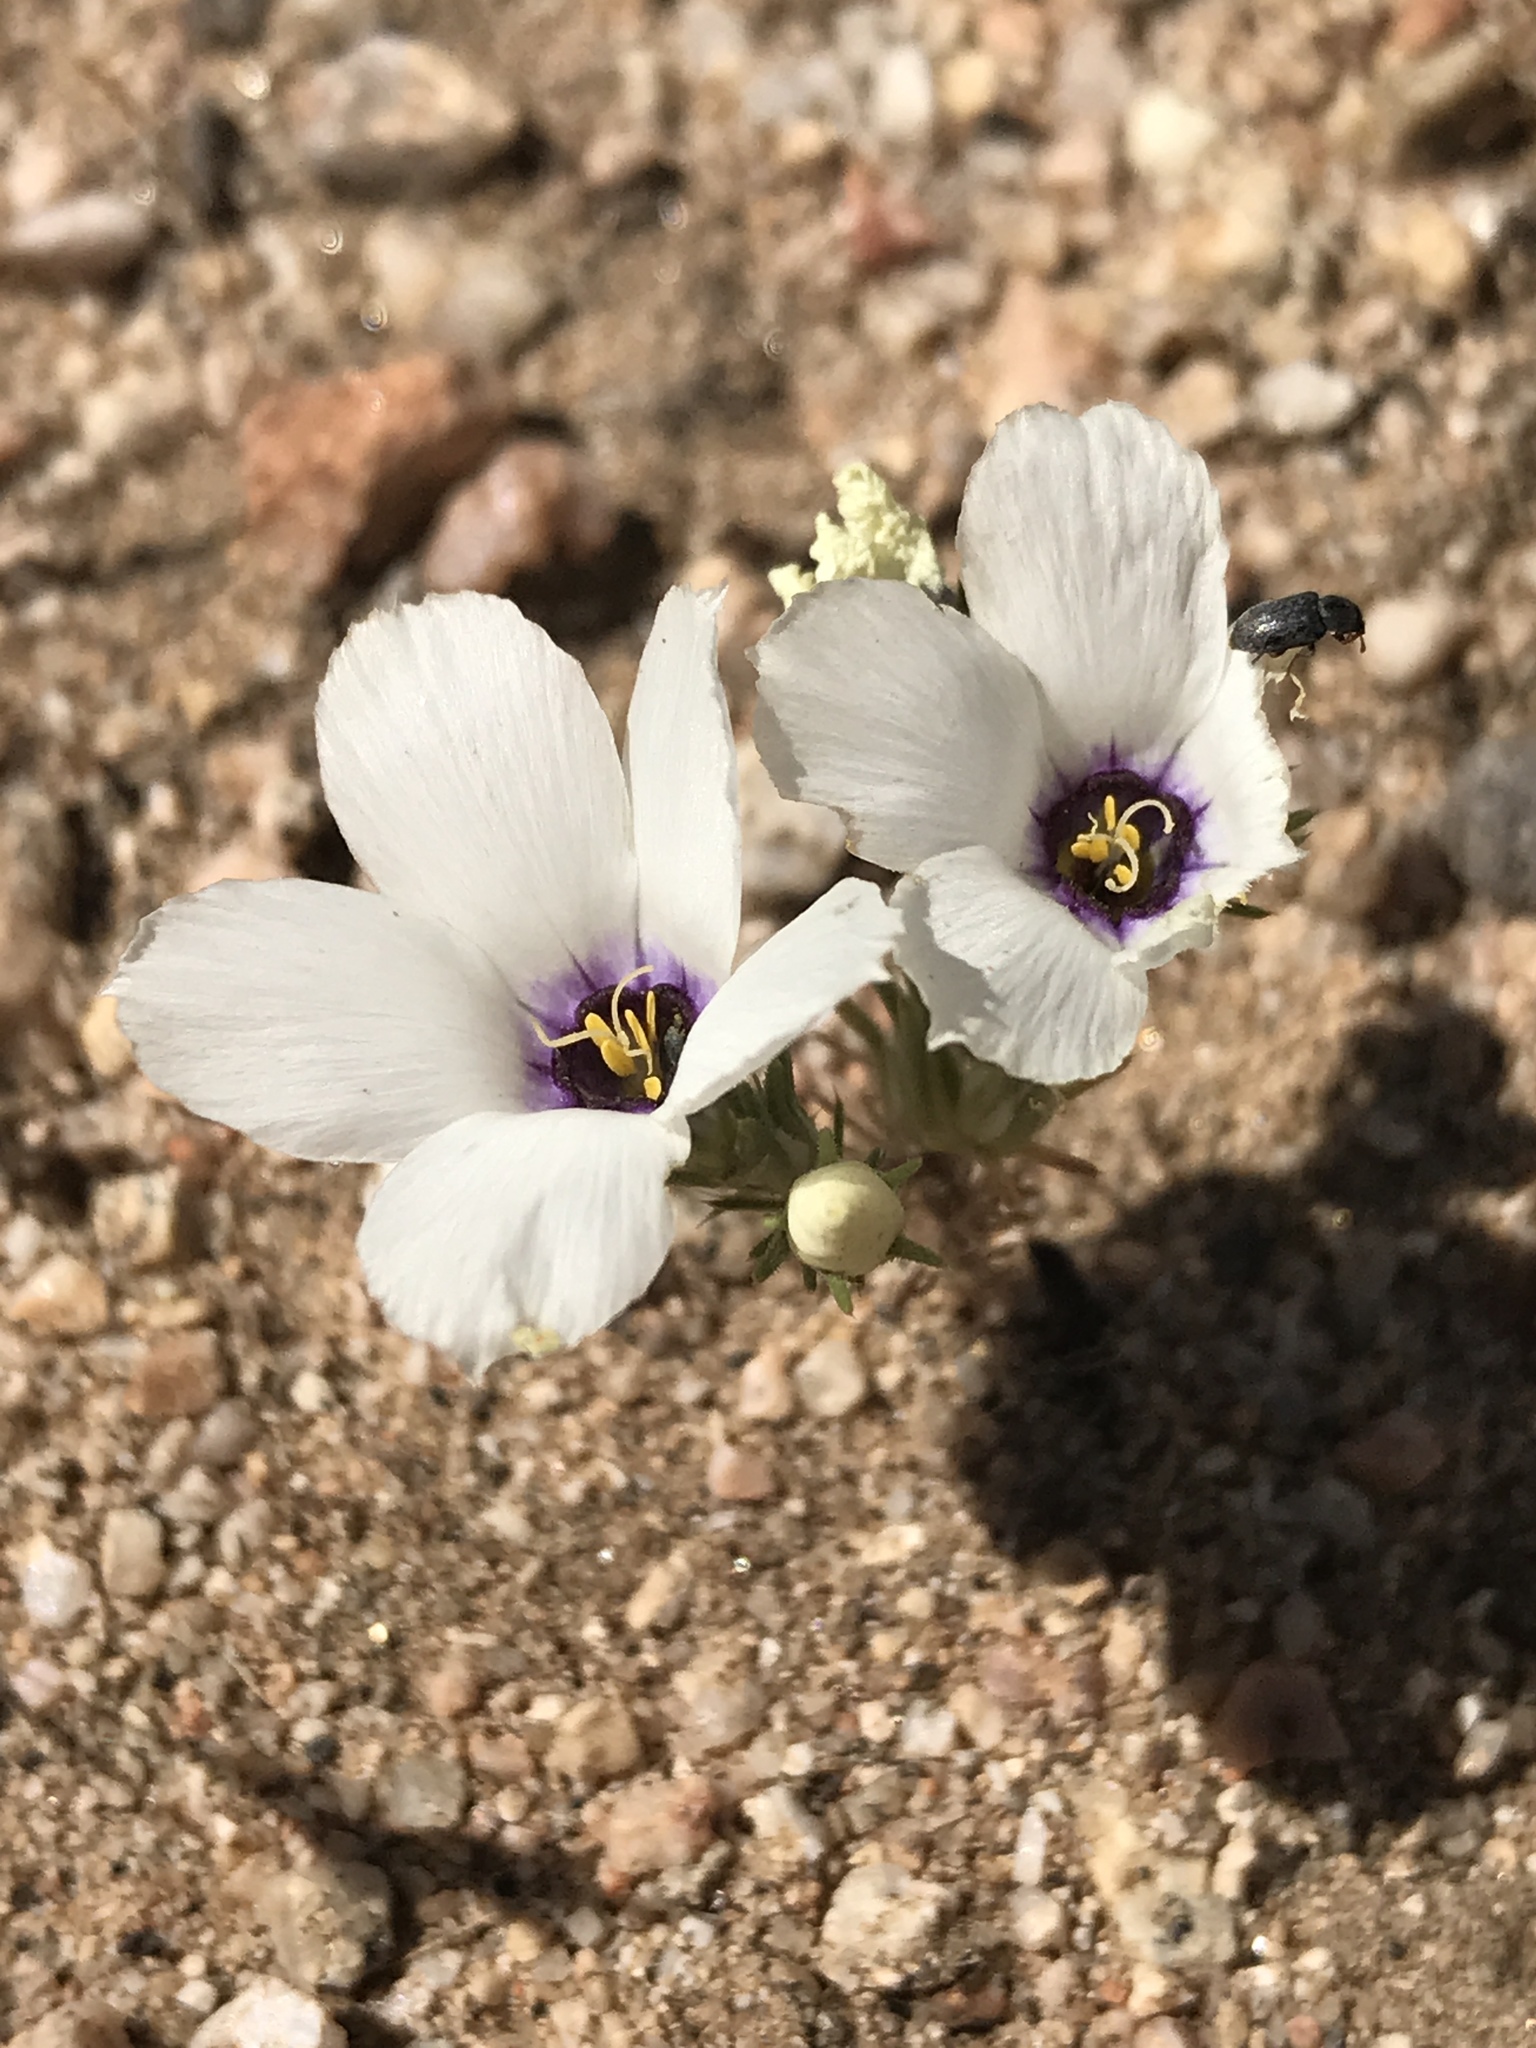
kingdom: Plantae
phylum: Tracheophyta
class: Magnoliopsida
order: Ericales
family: Polemoniaceae
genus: Linanthus
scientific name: Linanthus parryae
